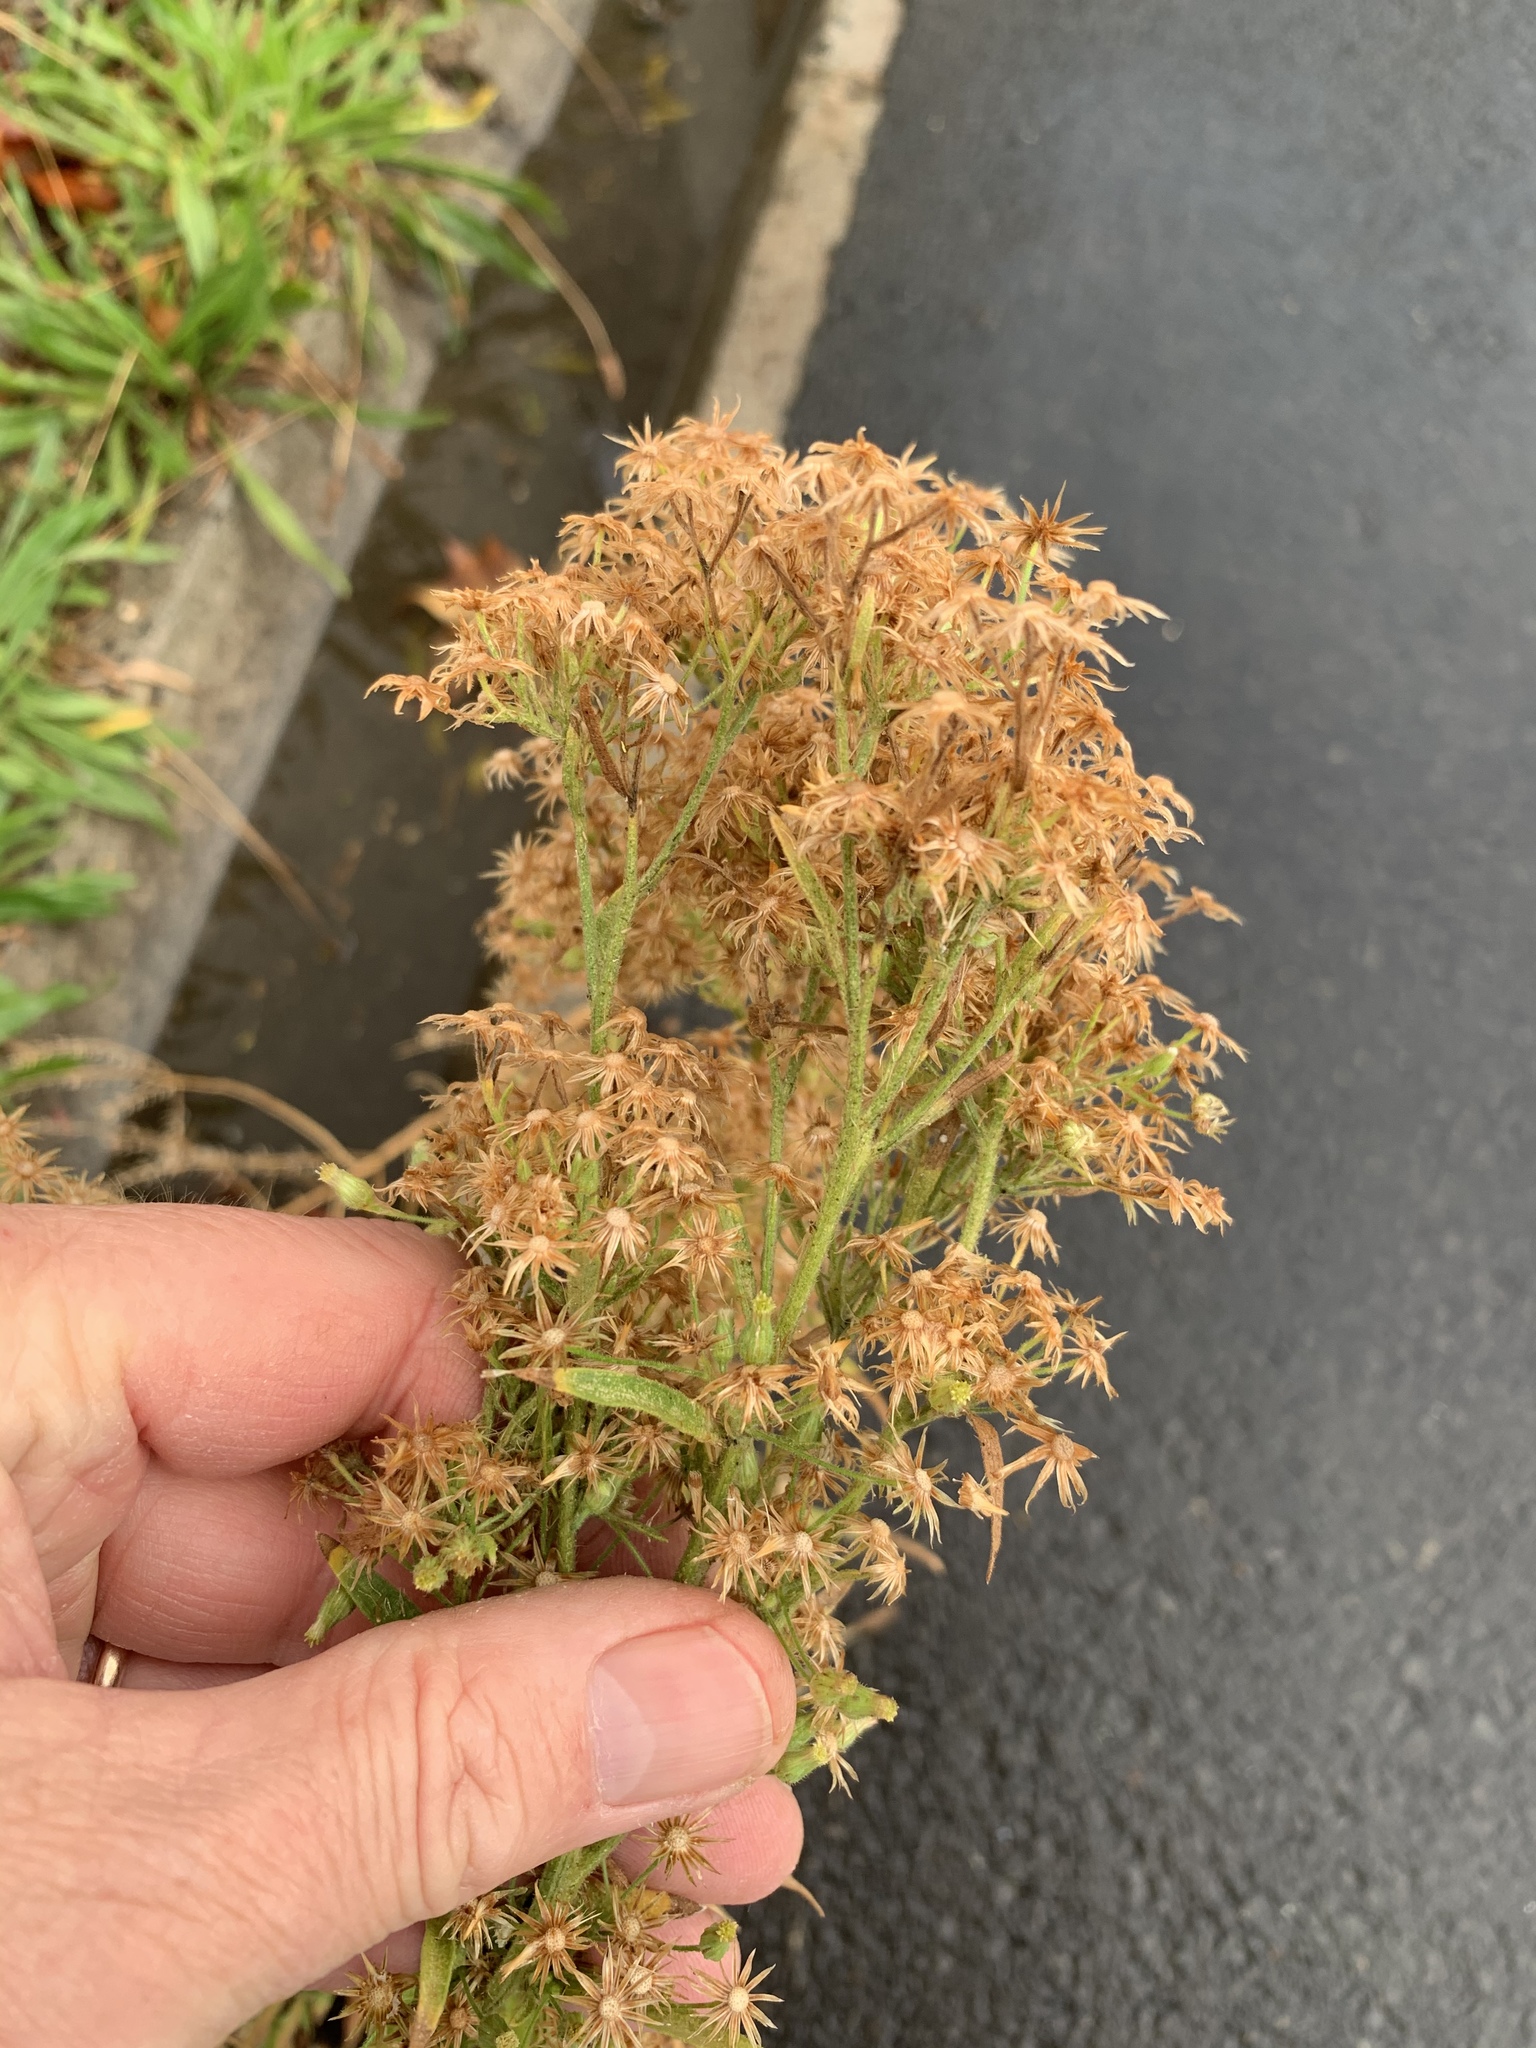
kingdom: Plantae
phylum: Tracheophyta
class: Magnoliopsida
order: Asterales
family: Asteraceae
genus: Erigeron
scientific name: Erigeron sumatrensis
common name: Daisy
